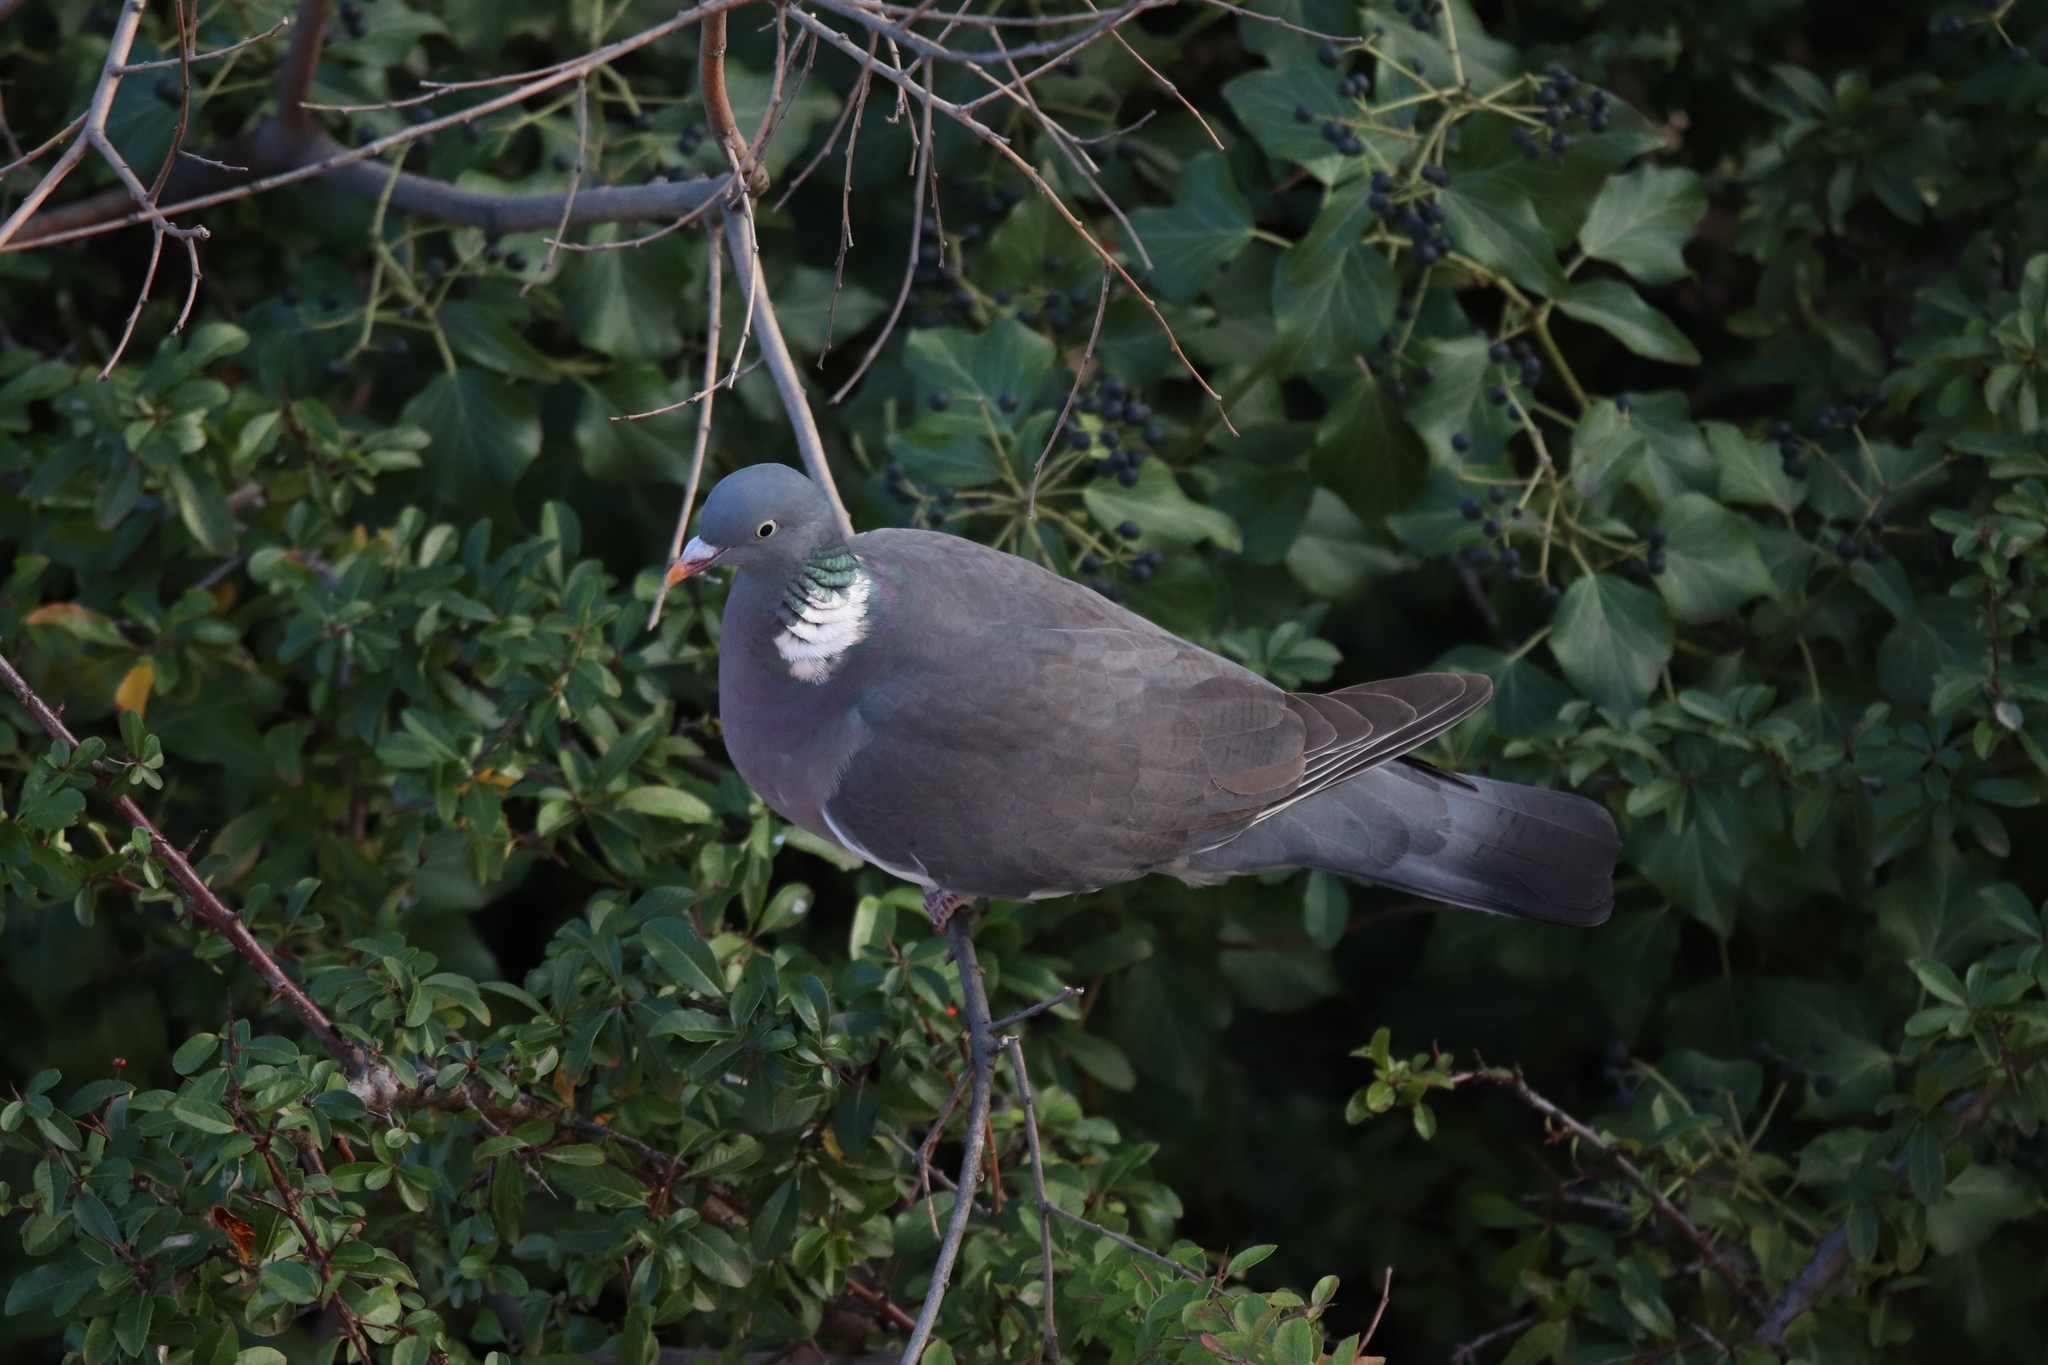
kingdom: Animalia
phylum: Chordata
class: Aves
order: Columbiformes
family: Columbidae
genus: Columba
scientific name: Columba palumbus
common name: Common wood pigeon
